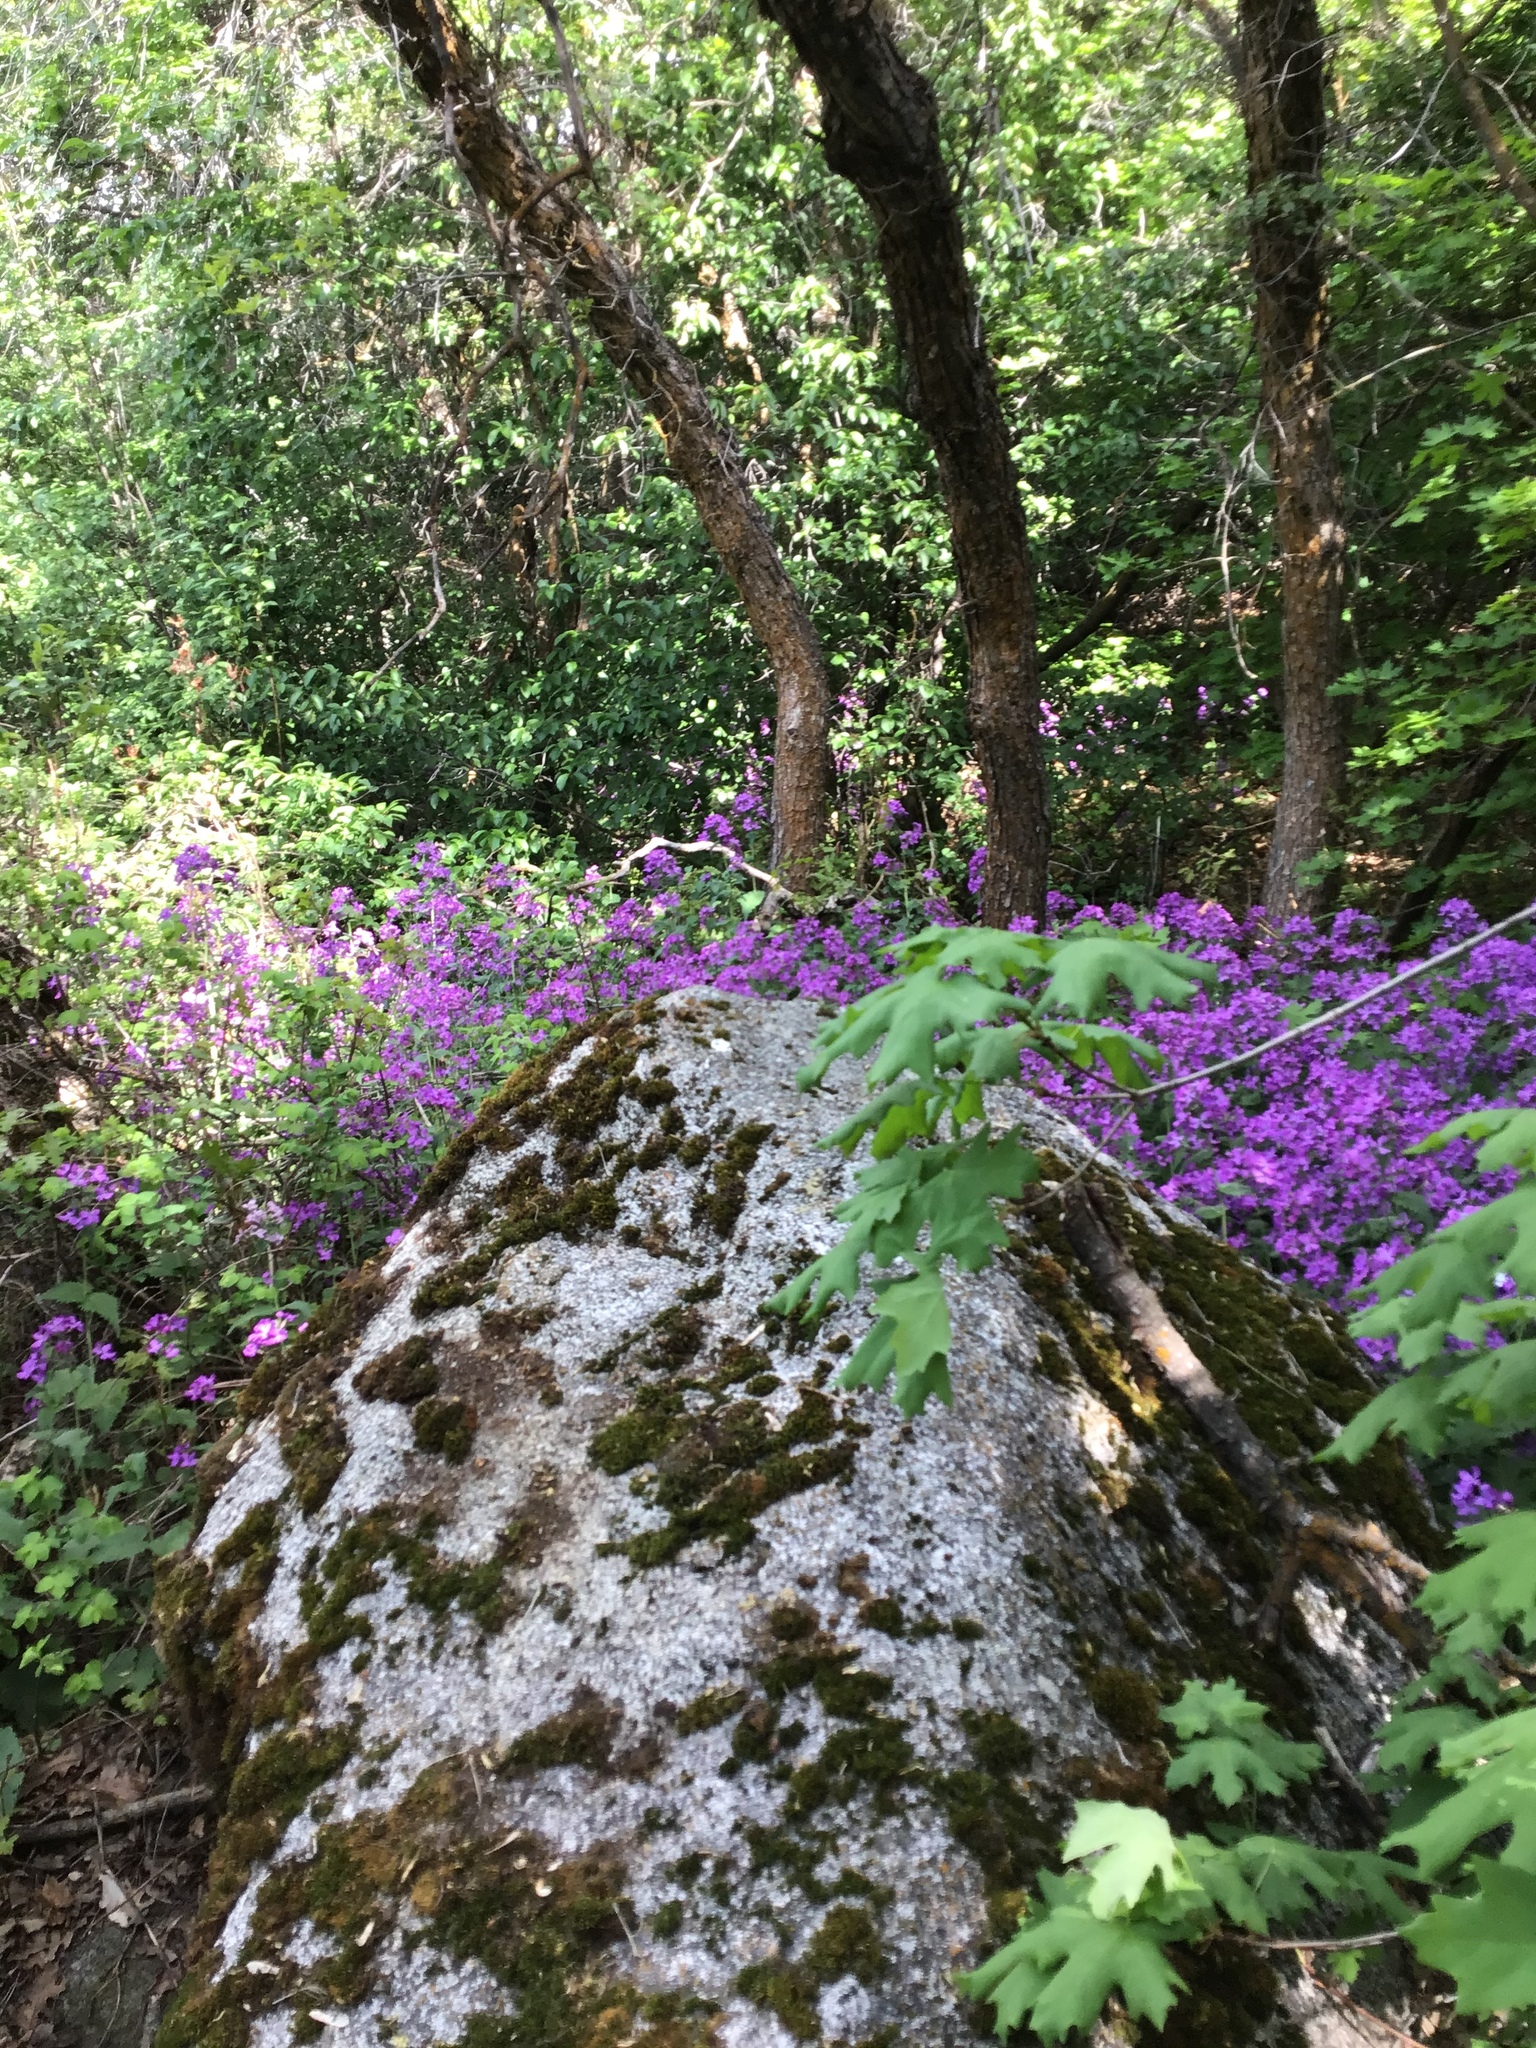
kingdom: Plantae
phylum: Tracheophyta
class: Magnoliopsida
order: Brassicales
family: Brassicaceae
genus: Lunaria
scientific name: Lunaria annua
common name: Honesty
